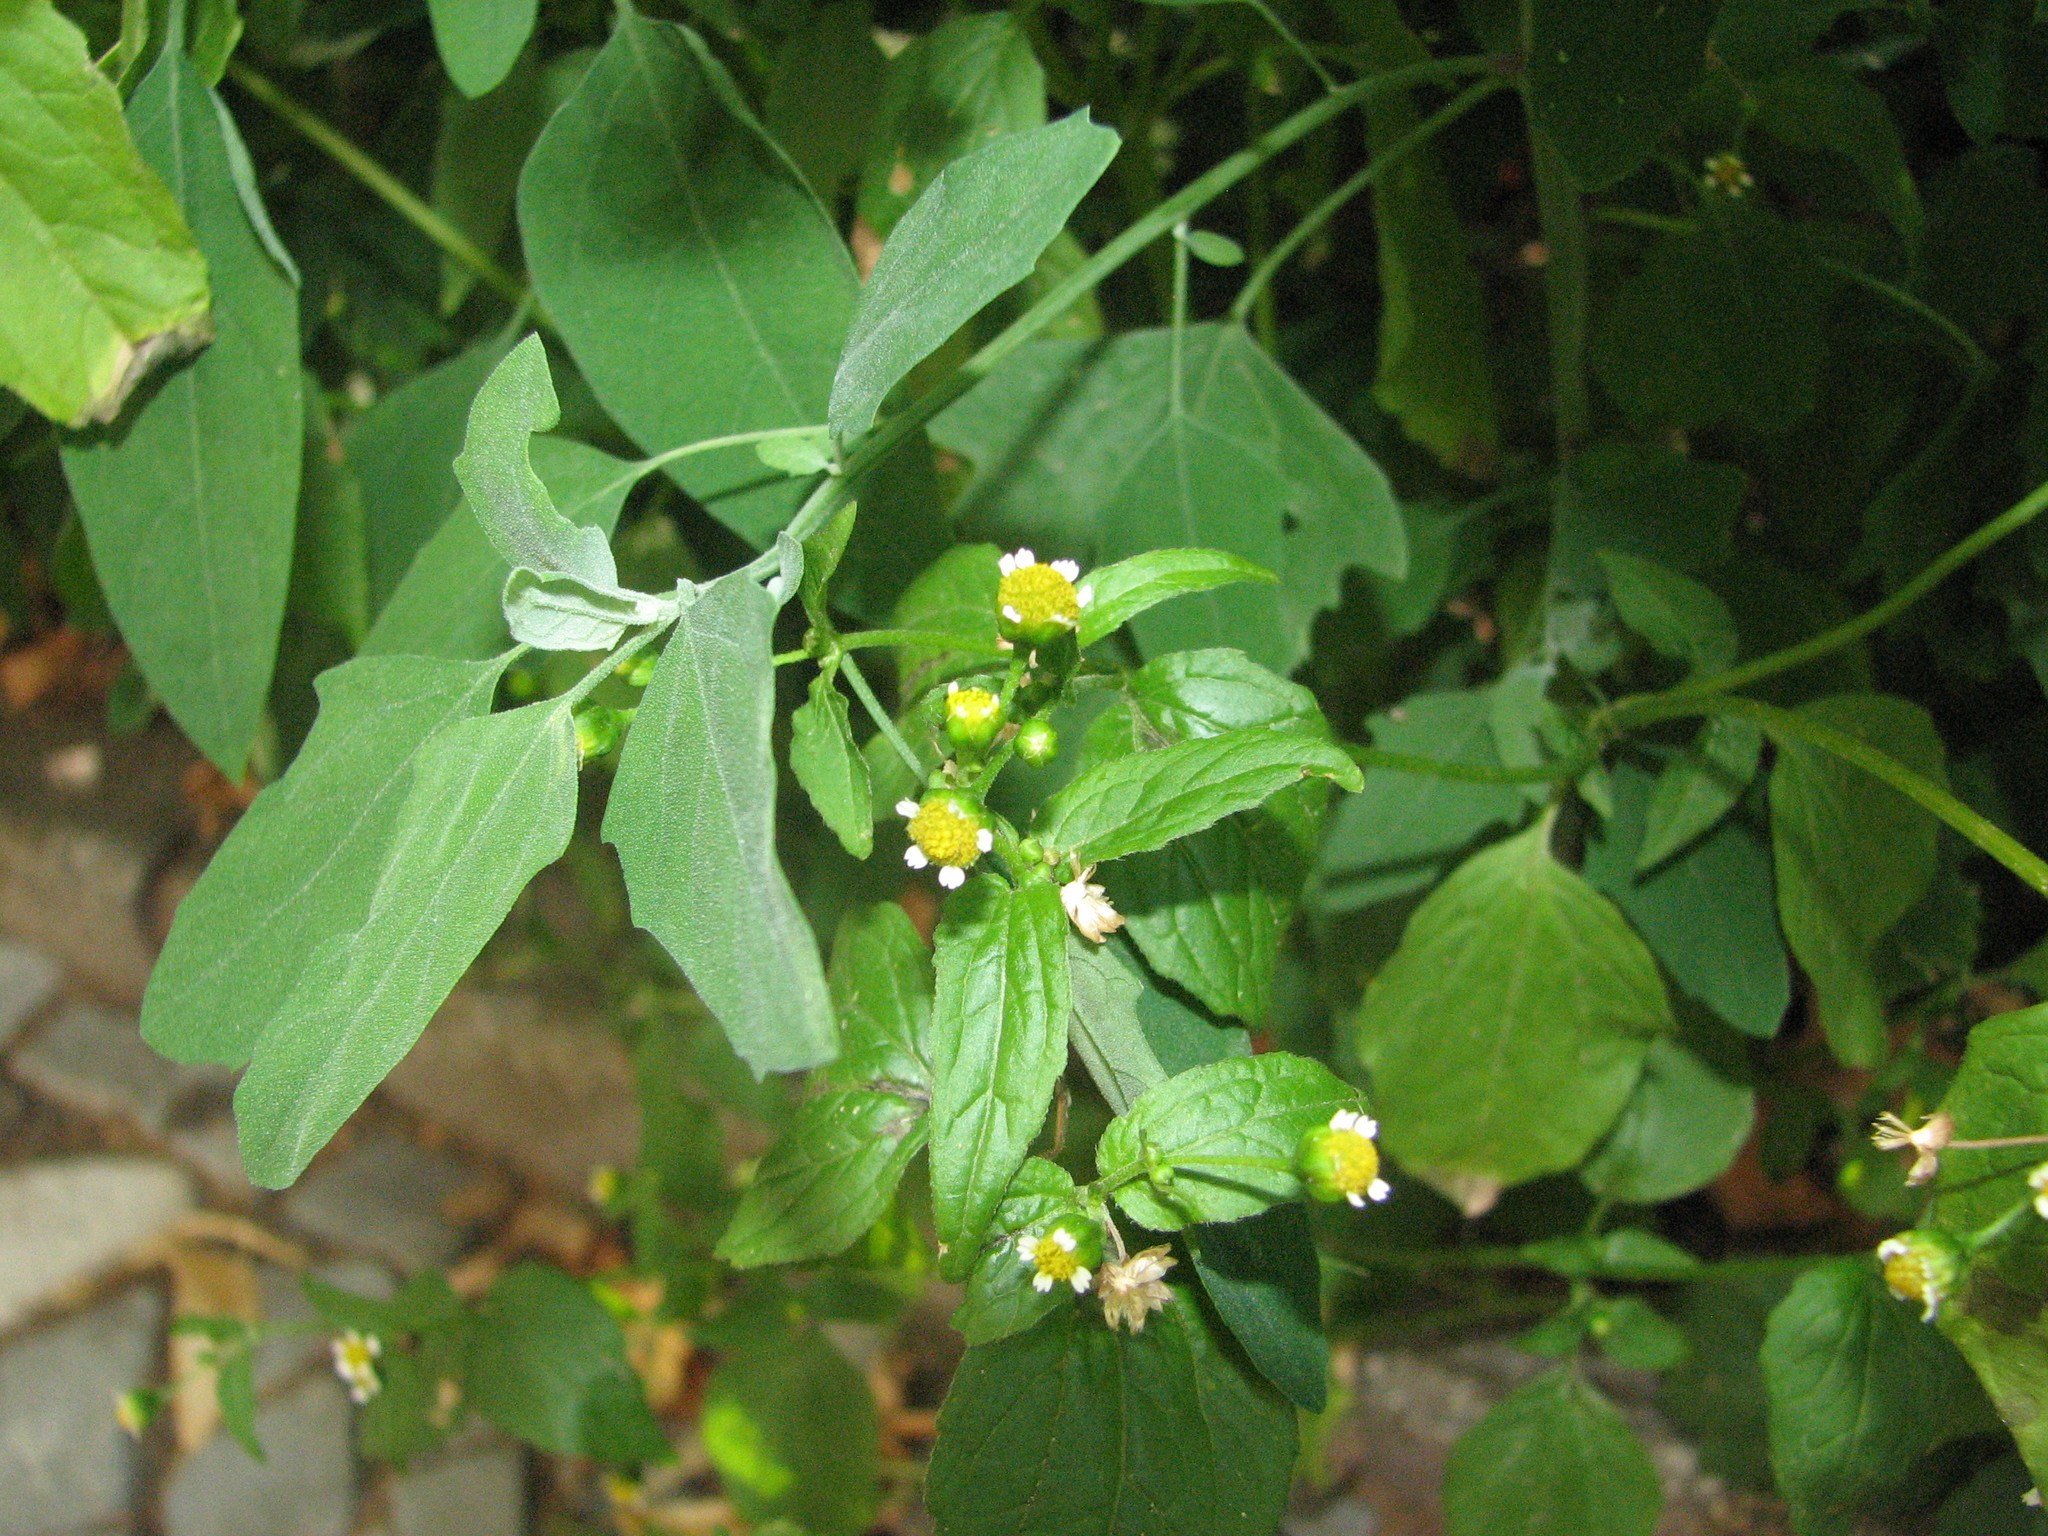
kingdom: Plantae
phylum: Tracheophyta
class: Magnoliopsida
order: Asterales
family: Asteraceae
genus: Galinsoga
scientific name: Galinsoga parviflora
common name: Gallant soldier
